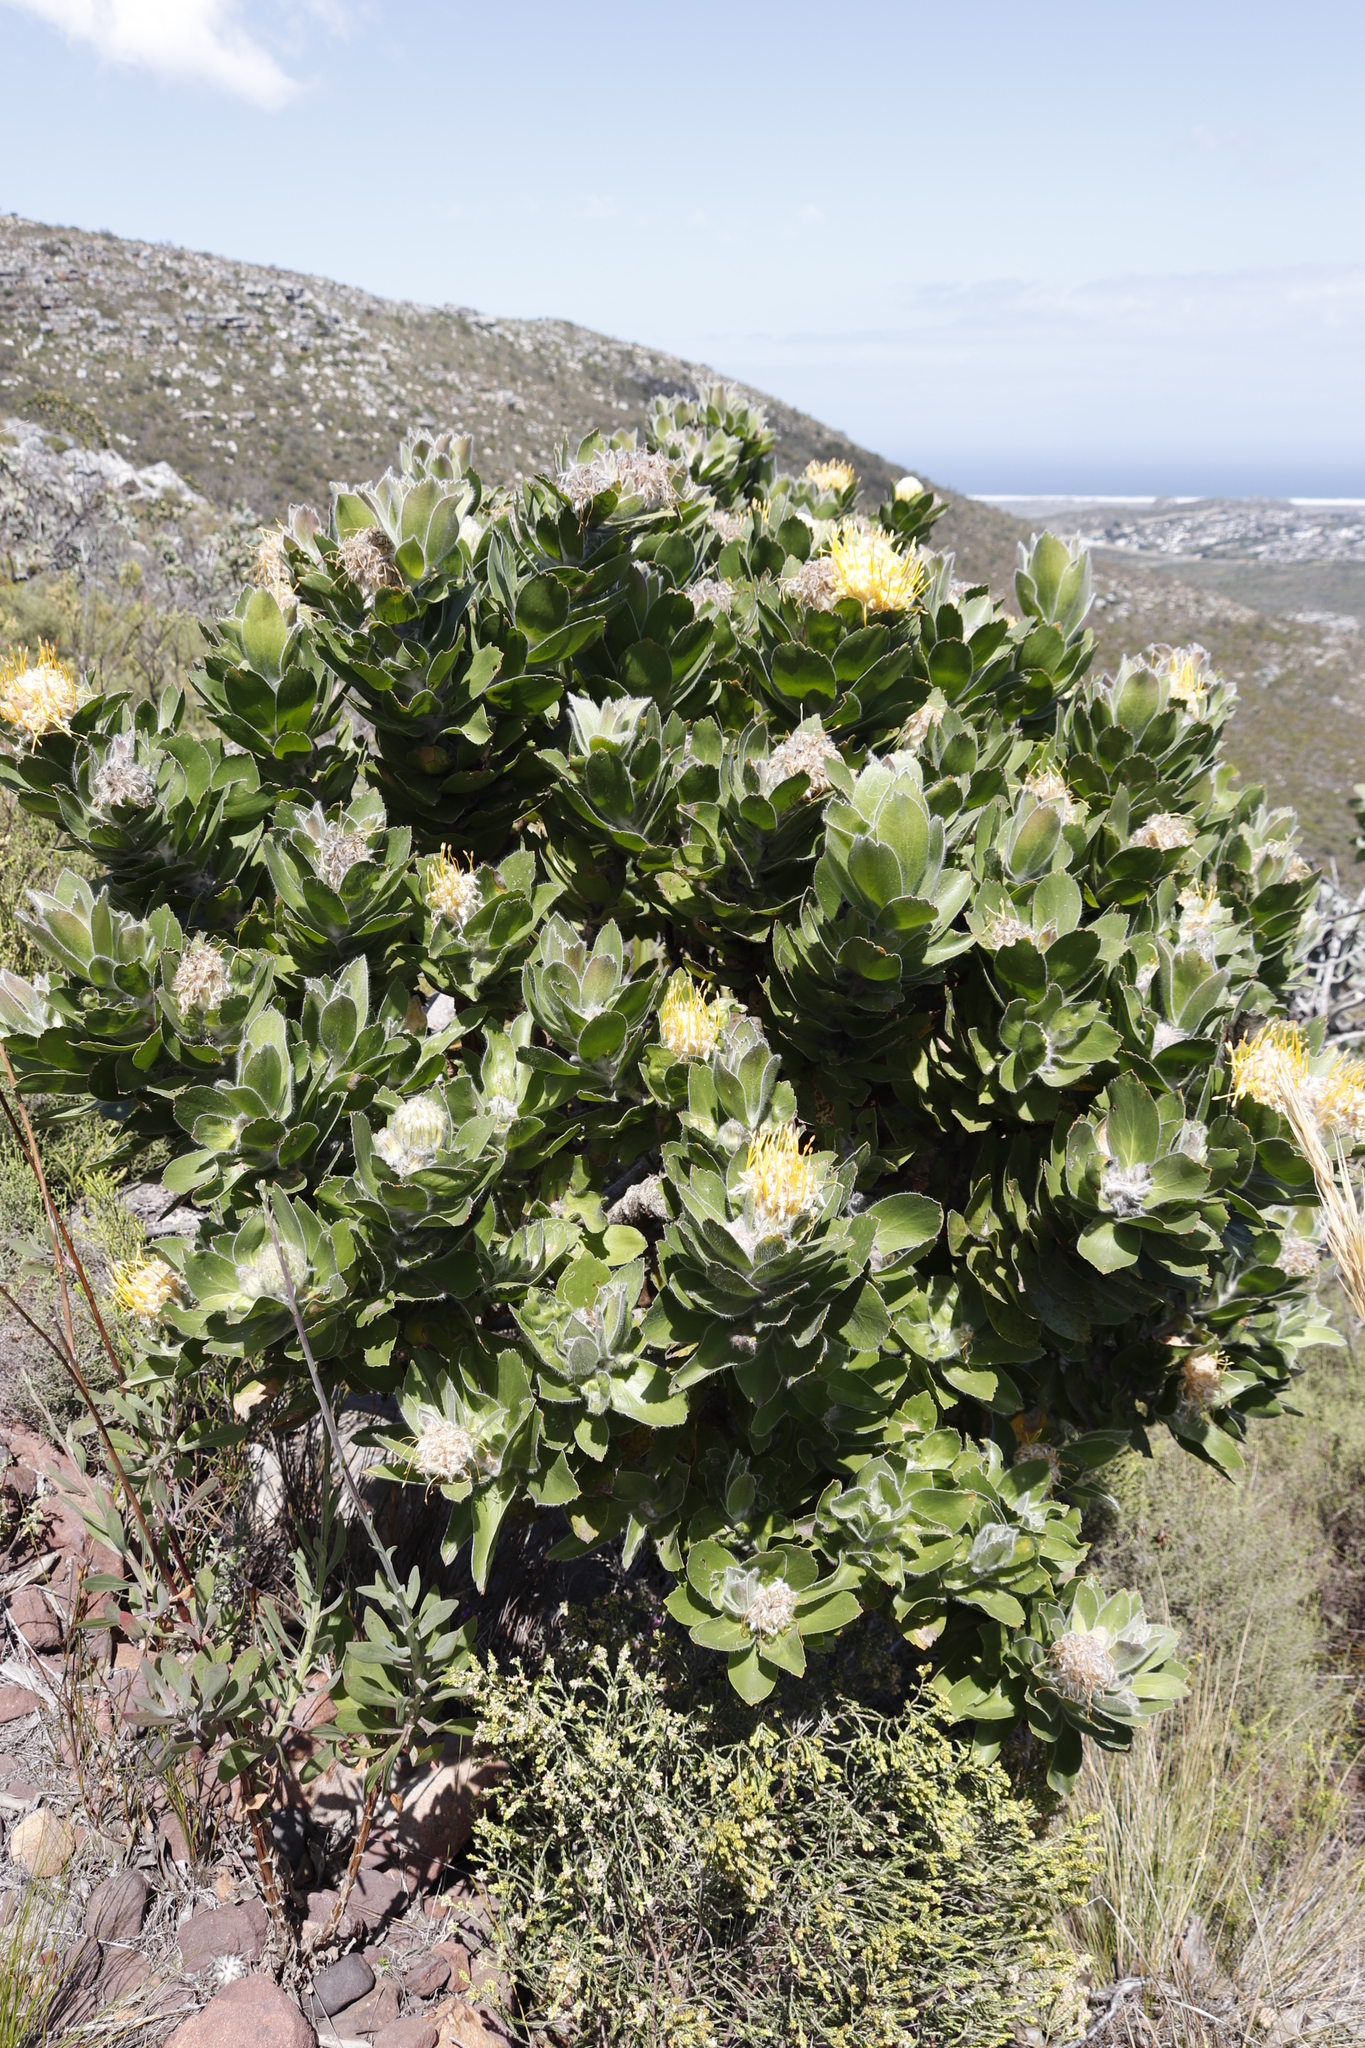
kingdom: Plantae
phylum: Tracheophyta
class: Magnoliopsida
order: Proteales
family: Proteaceae
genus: Leucospermum
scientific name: Leucospermum conocarpodendron
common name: Tree pincushion
